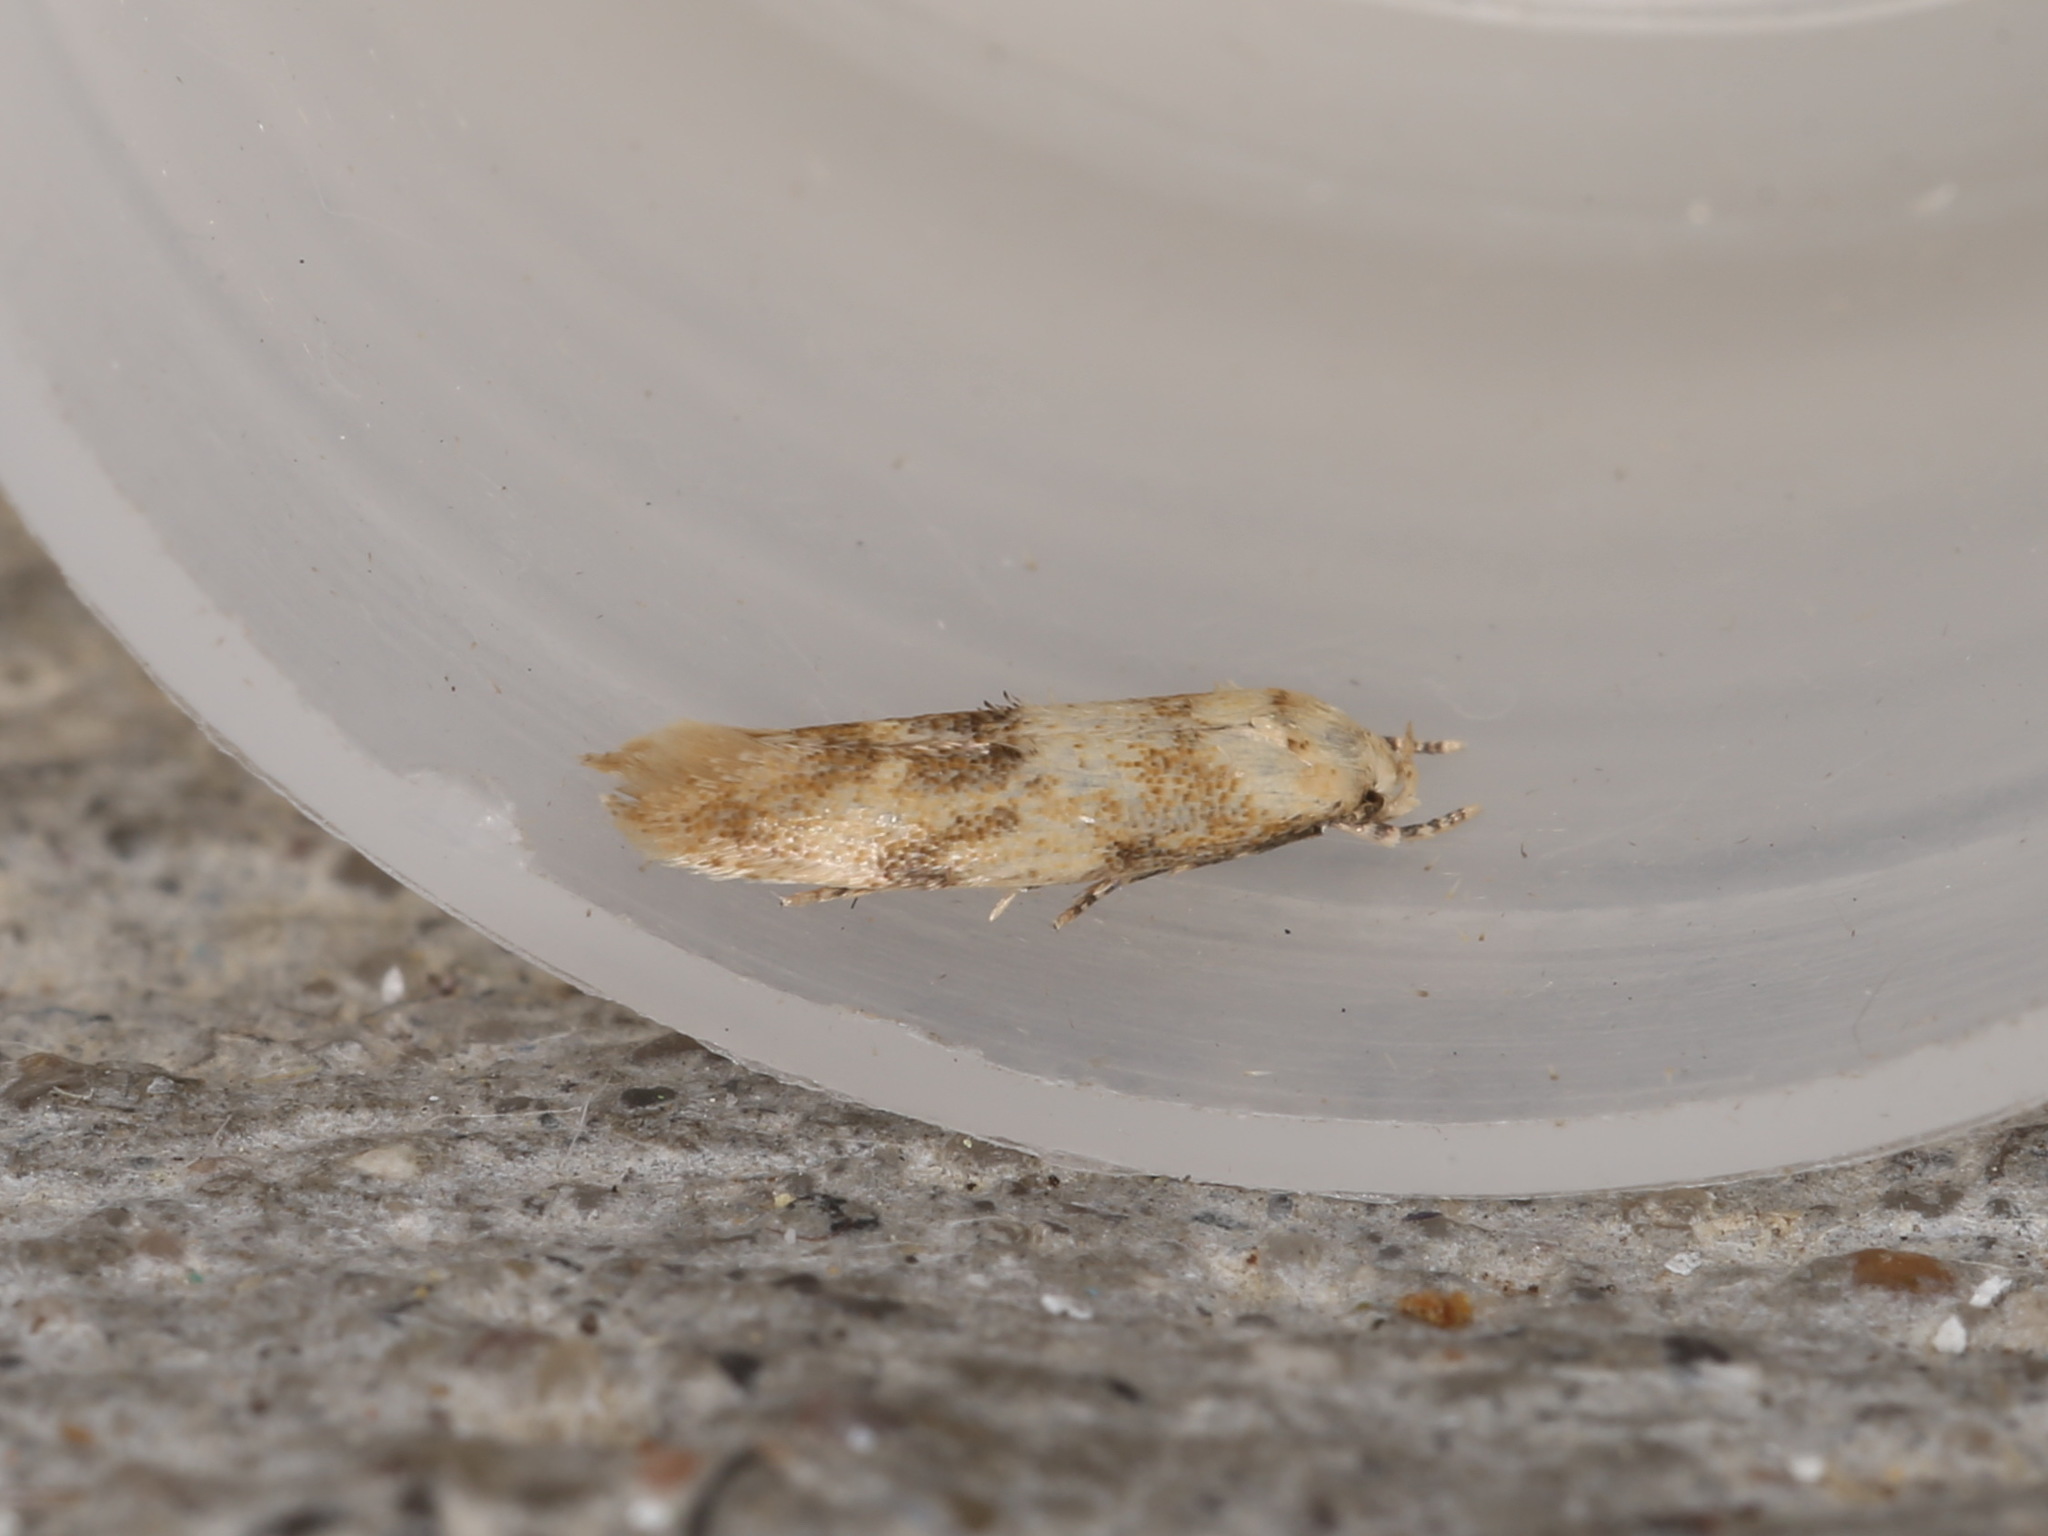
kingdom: Animalia
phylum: Arthropoda
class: Insecta
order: Lepidoptera
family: Momphidae
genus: Mompha
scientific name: Mompha epilobiella
